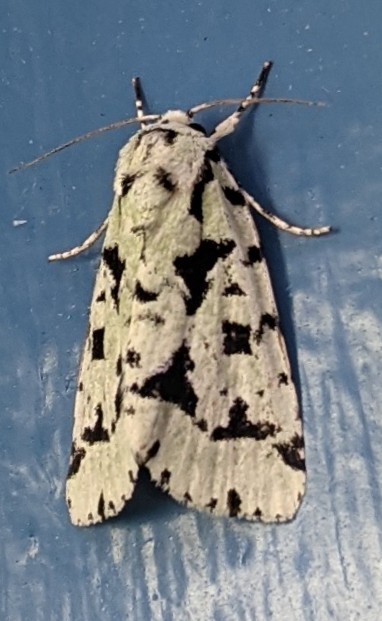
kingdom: Animalia
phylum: Arthropoda
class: Insecta
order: Lepidoptera
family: Noctuidae
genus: Acronicta
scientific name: Acronicta fallax
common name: Green marvel
